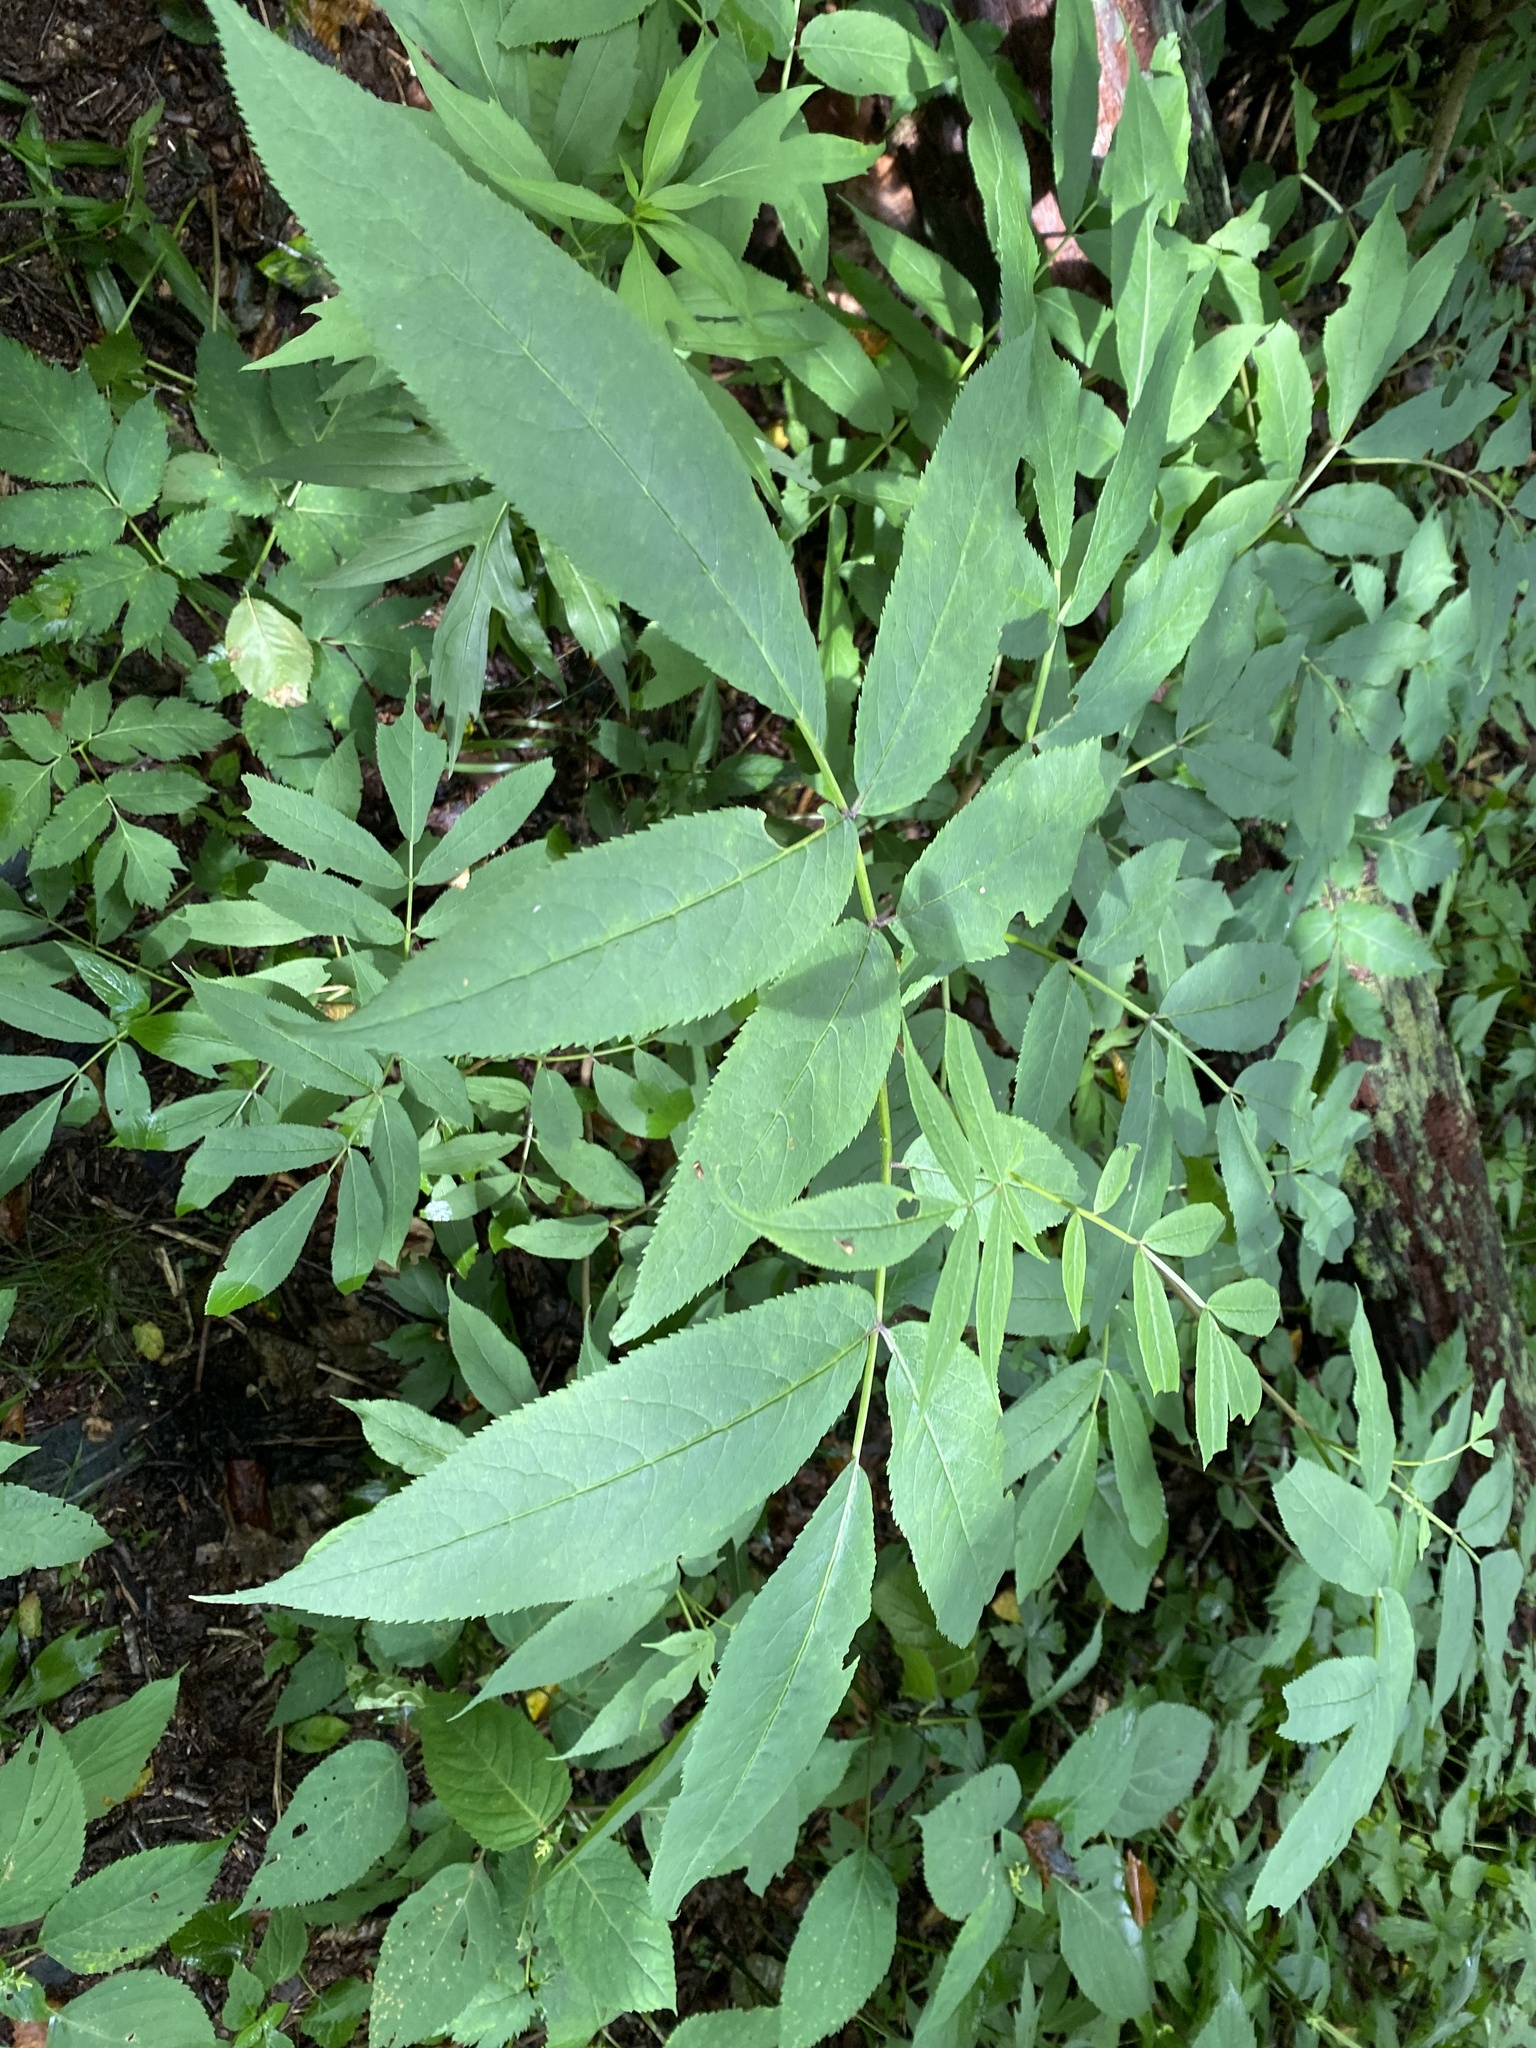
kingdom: Plantae
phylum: Tracheophyta
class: Magnoliopsida
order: Dipsacales
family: Viburnaceae
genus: Sambucus
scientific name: Sambucus racemosa
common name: Red-berried elder
